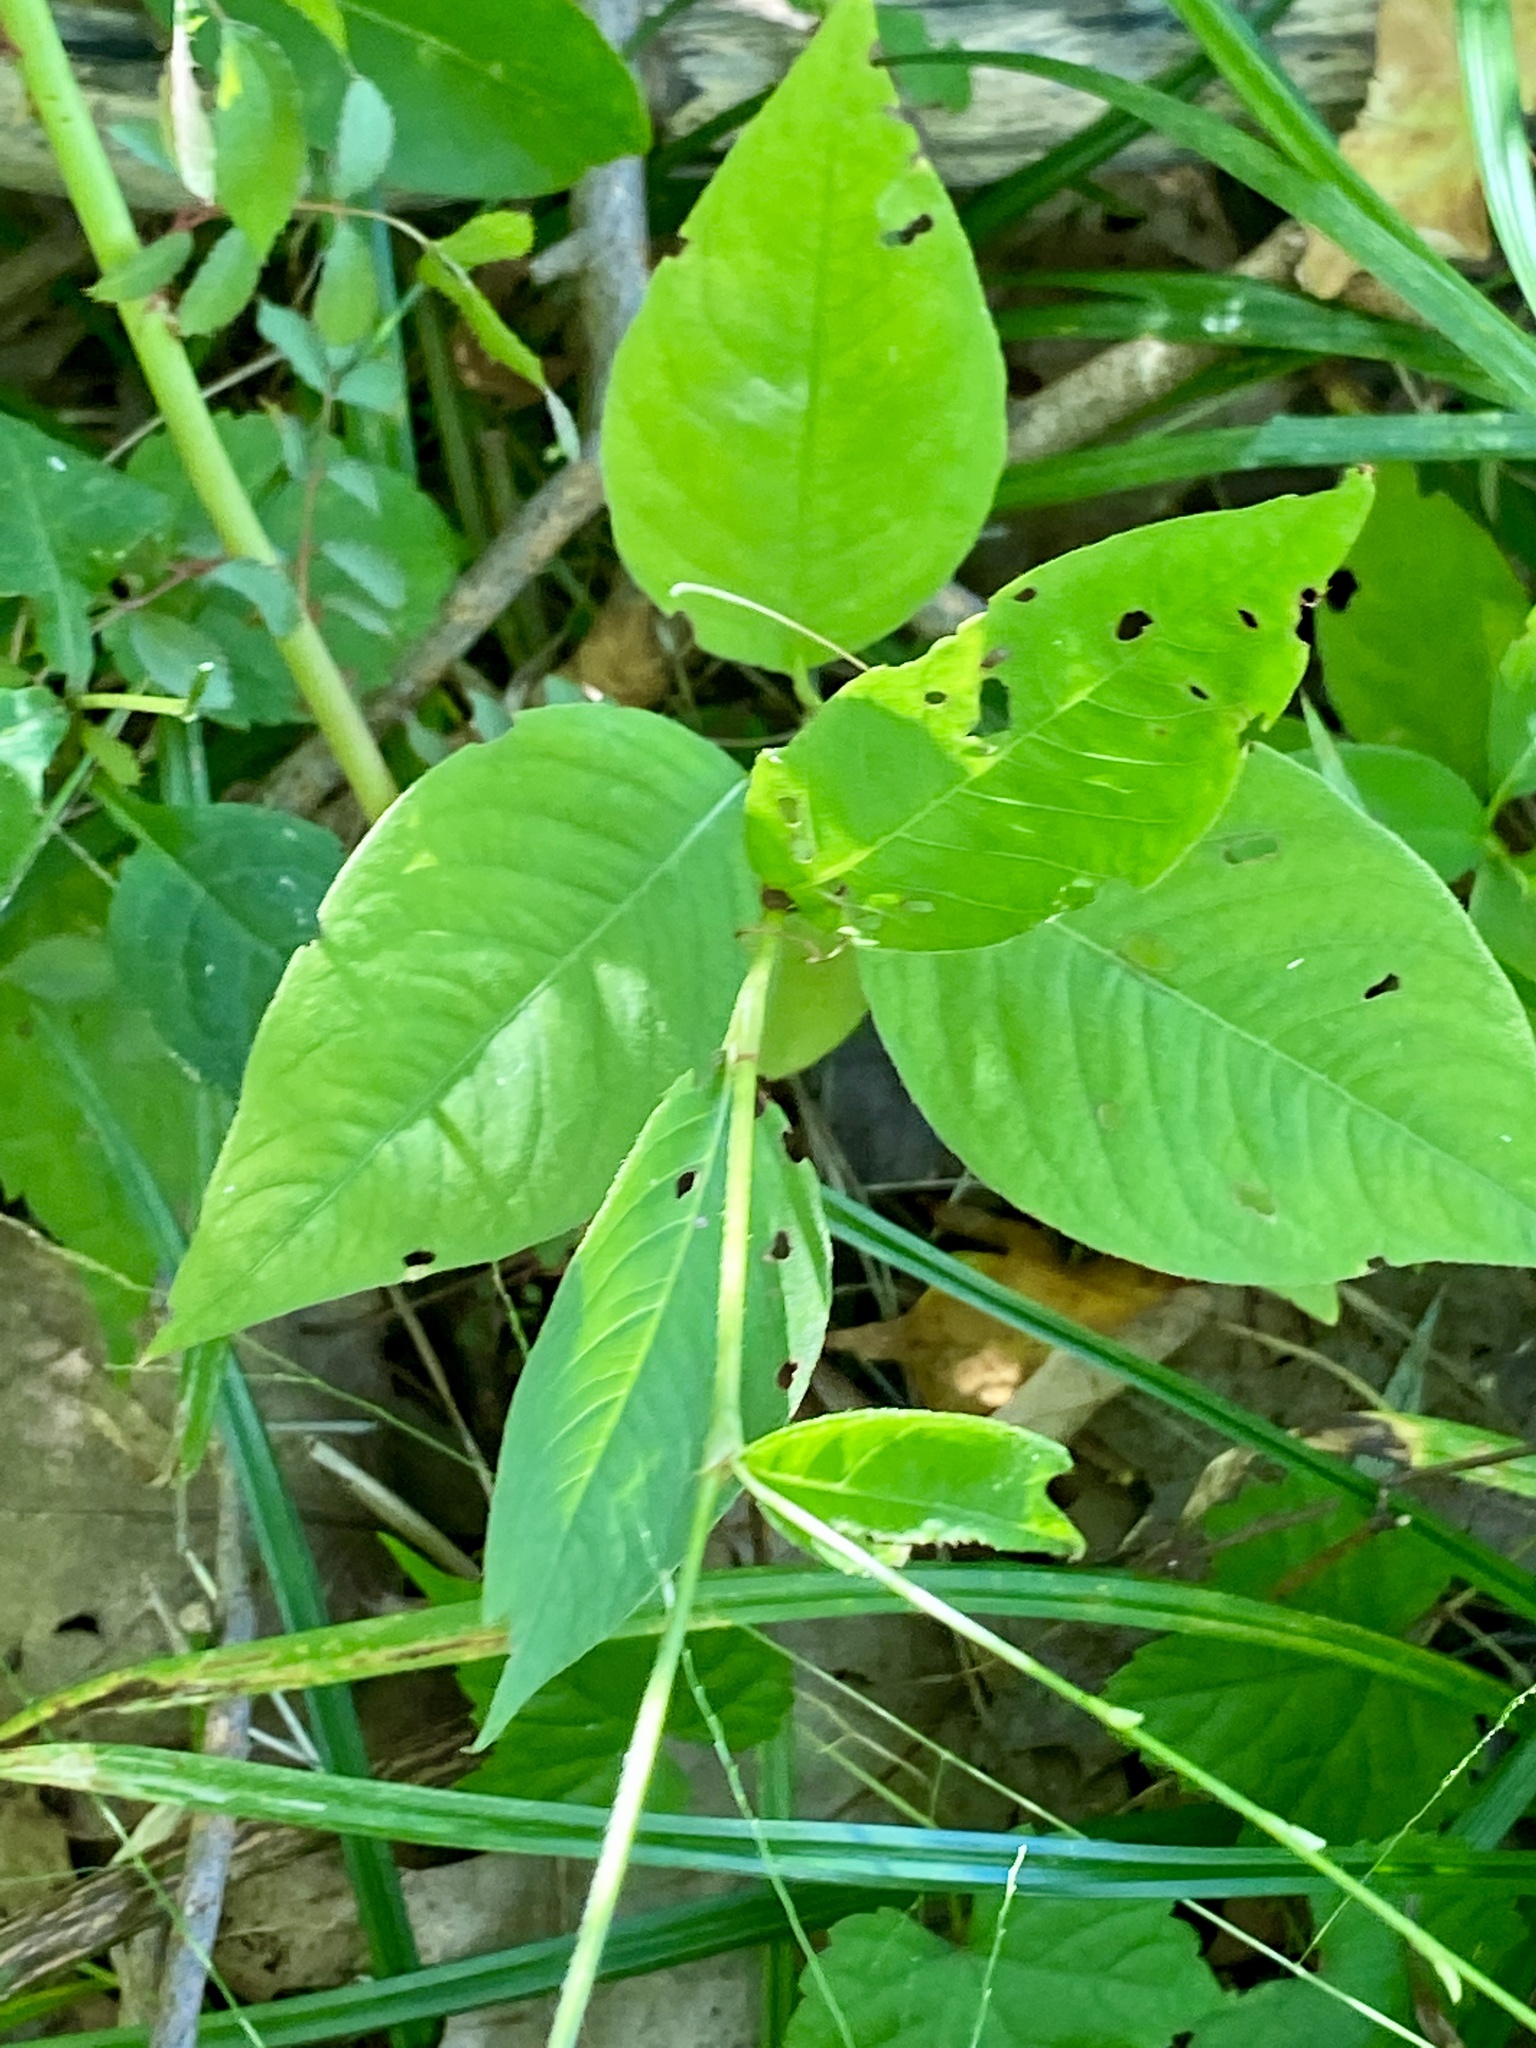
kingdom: Plantae
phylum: Tracheophyta
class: Magnoliopsida
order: Caryophyllales
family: Polygonaceae
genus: Persicaria
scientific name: Persicaria virginiana
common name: Jumpseed
